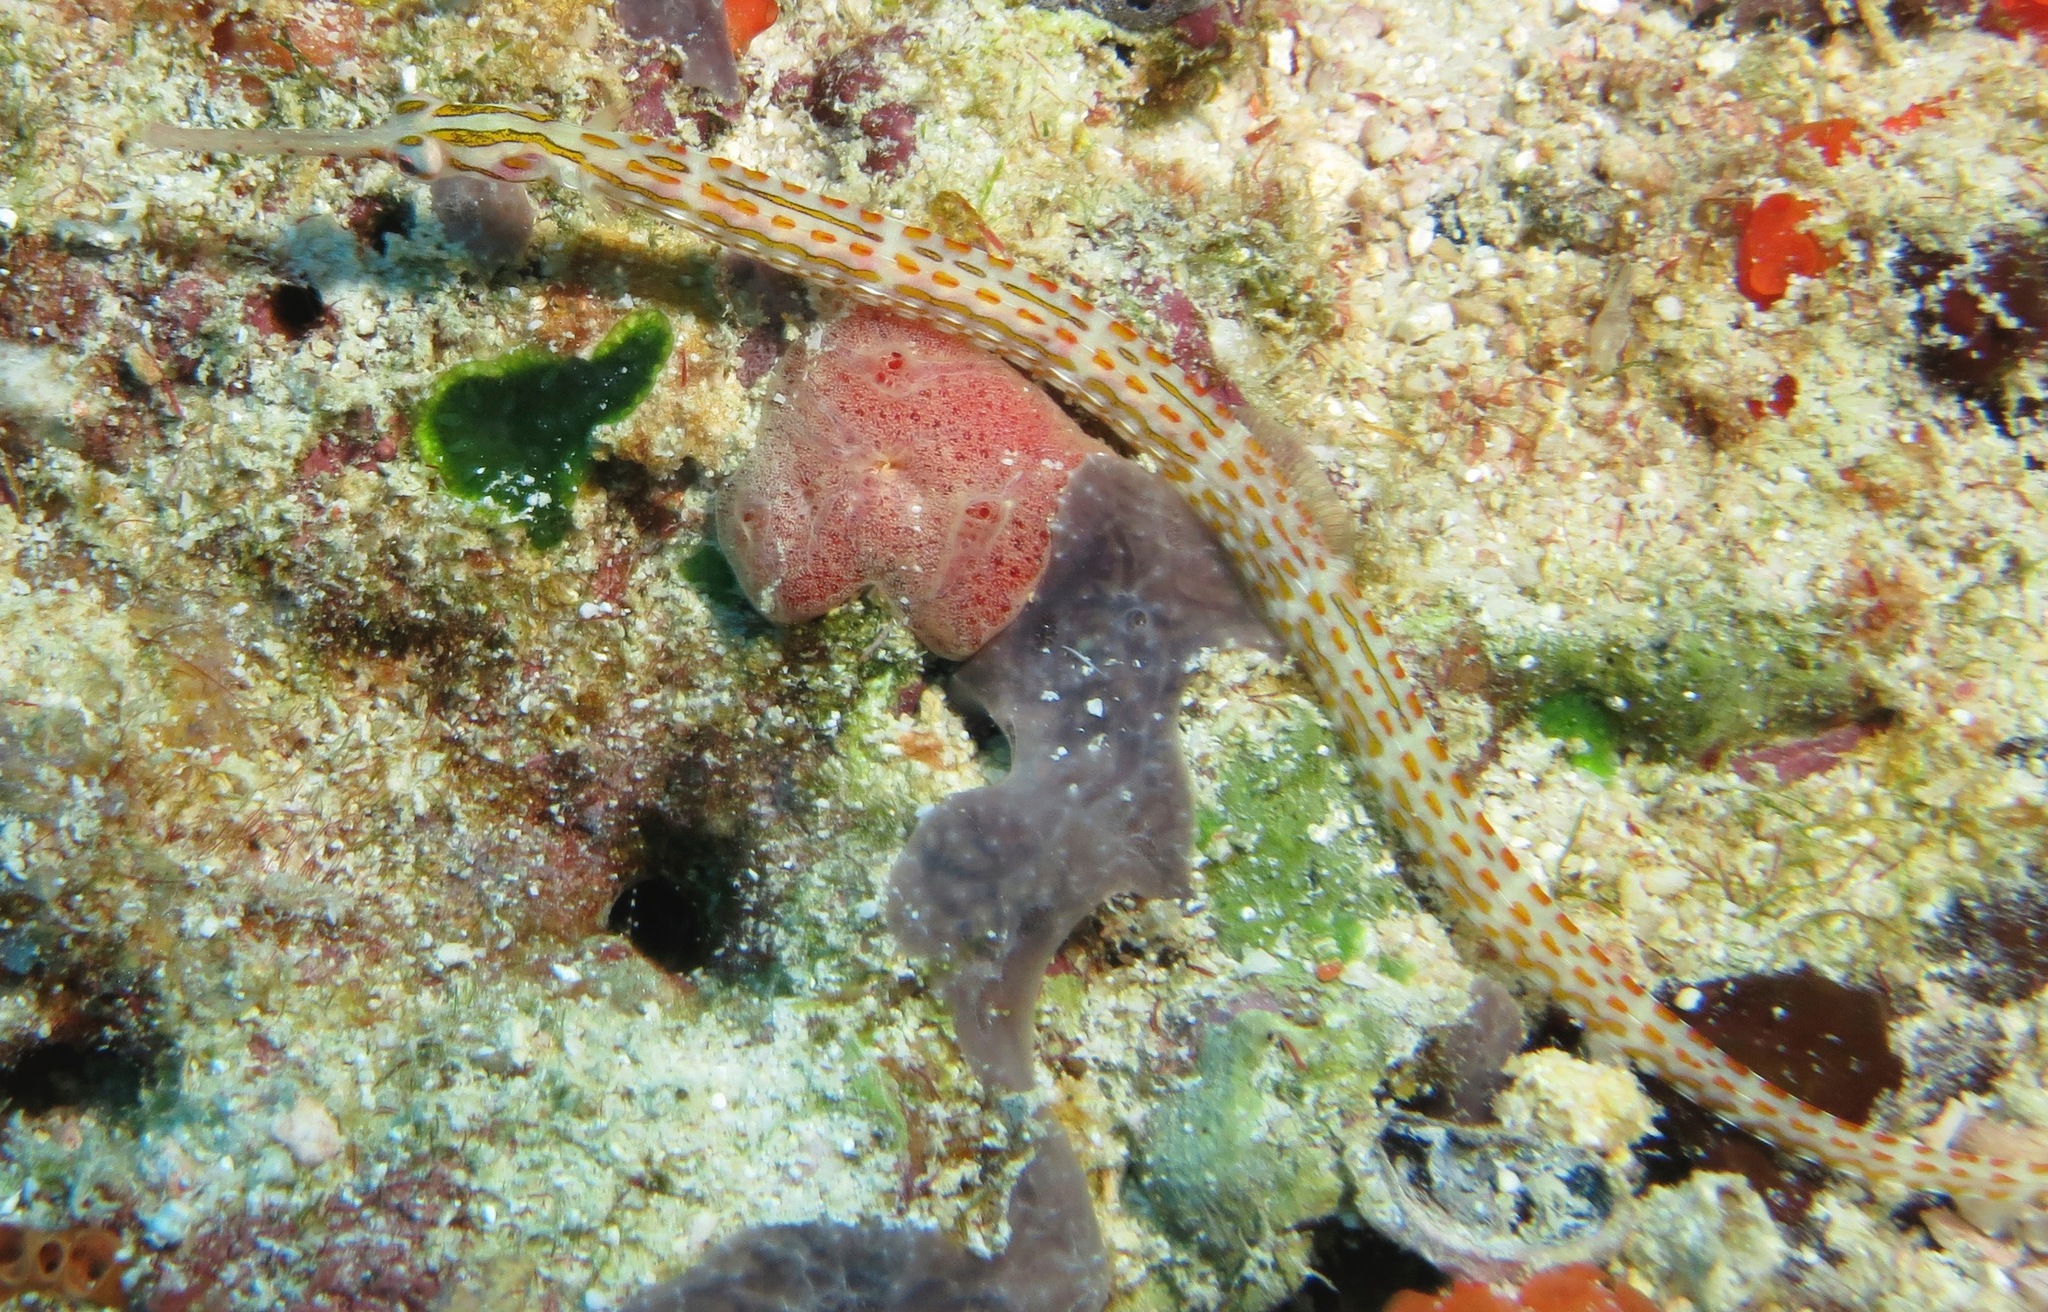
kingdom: Animalia
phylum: Chordata
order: Syngnathiformes
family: Syngnathidae
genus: Corythoichthys
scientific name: Corythoichthys schultzi
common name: Guilded pipefish
